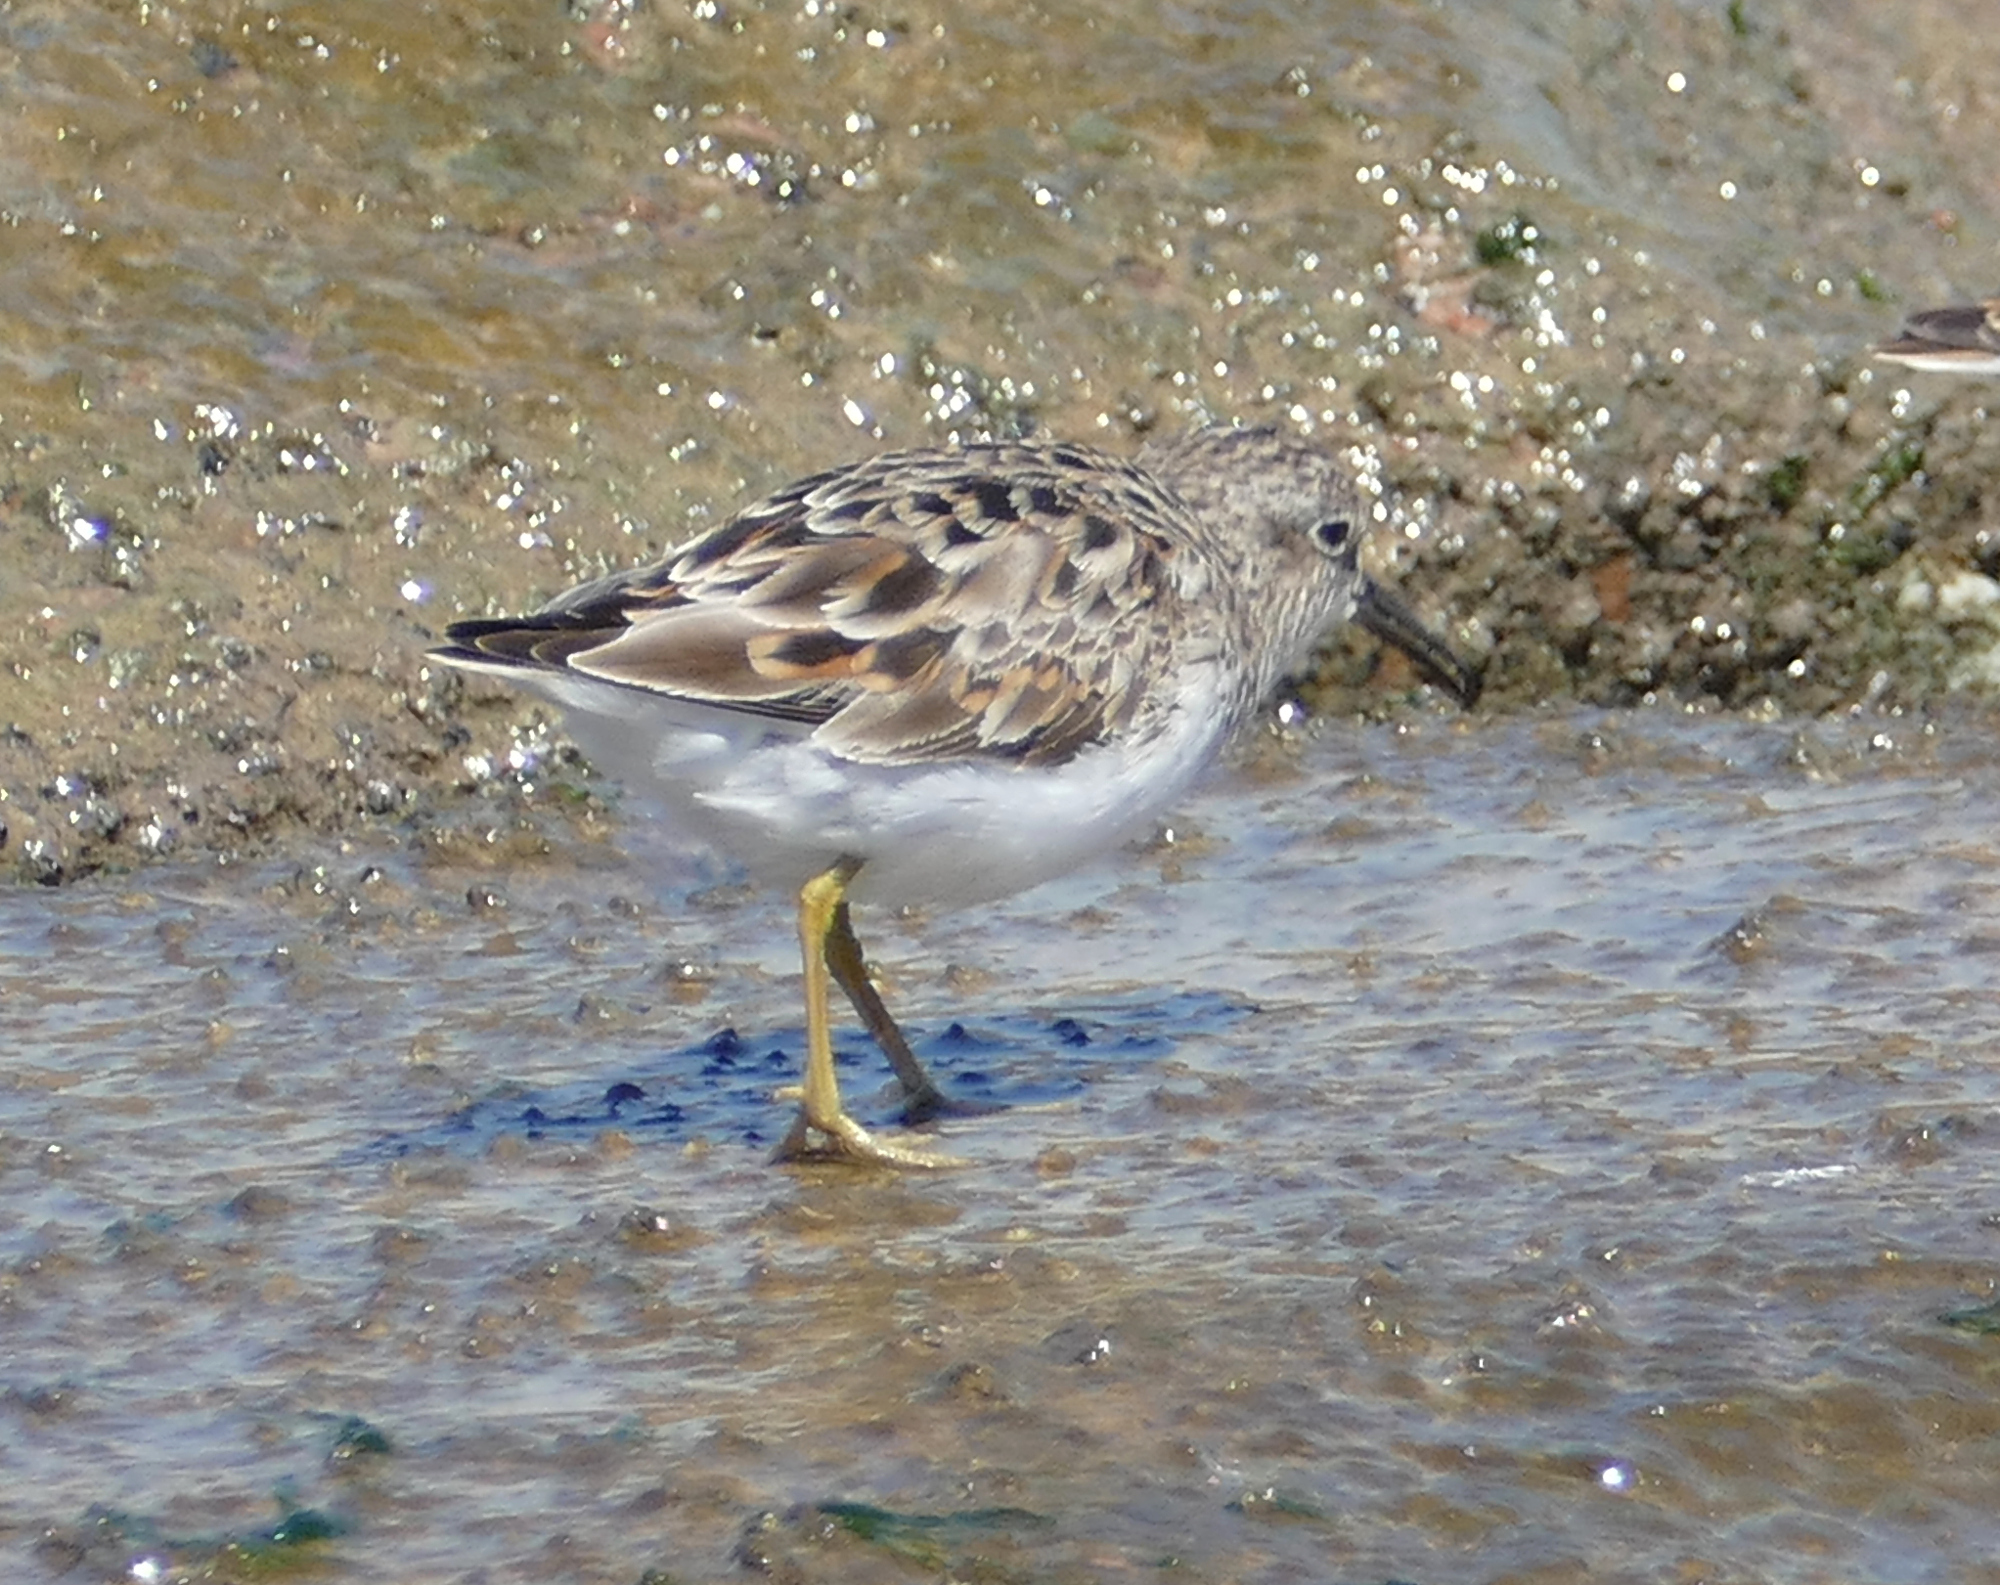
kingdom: Animalia
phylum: Chordata
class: Aves
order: Charadriiformes
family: Scolopacidae
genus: Calidris
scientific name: Calidris minutilla
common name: Least sandpiper
